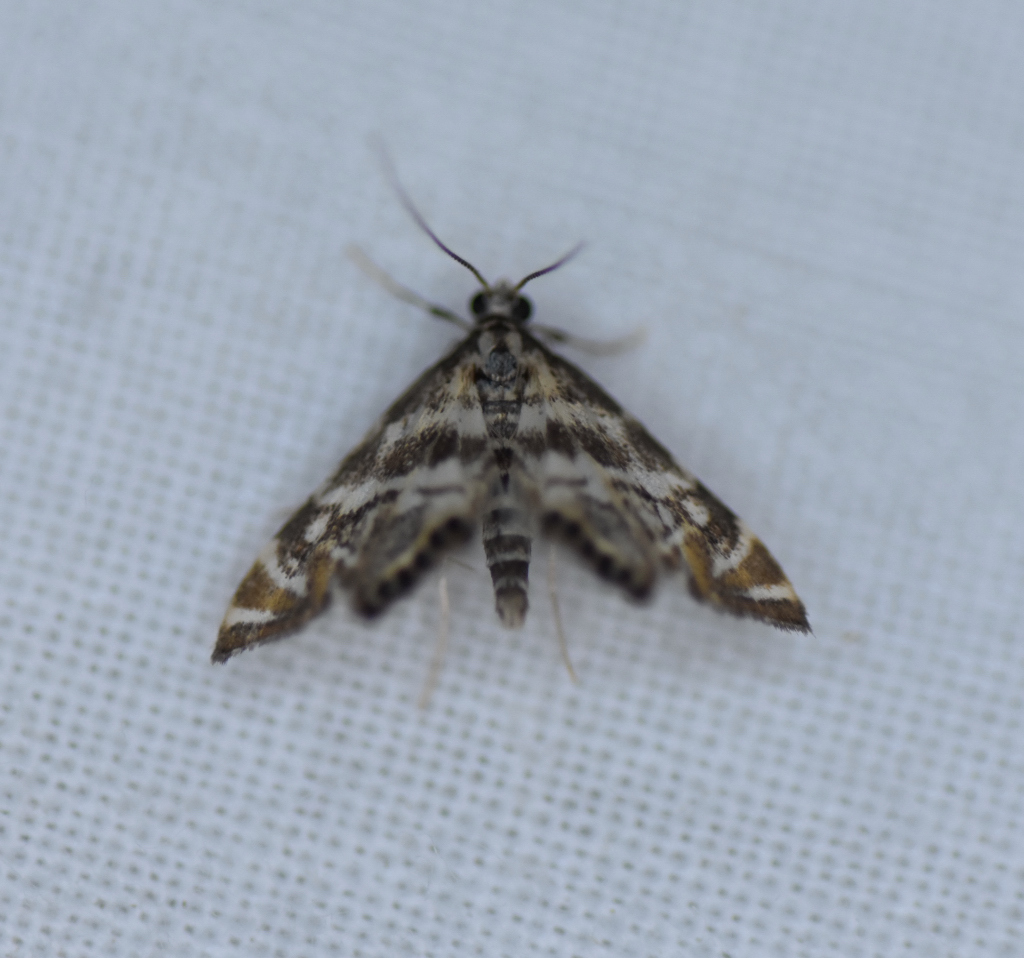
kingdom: Animalia
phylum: Arthropoda
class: Insecta
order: Lepidoptera
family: Crambidae
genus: Petrophila
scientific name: Petrophila canadensis
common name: Canadian petrophila
